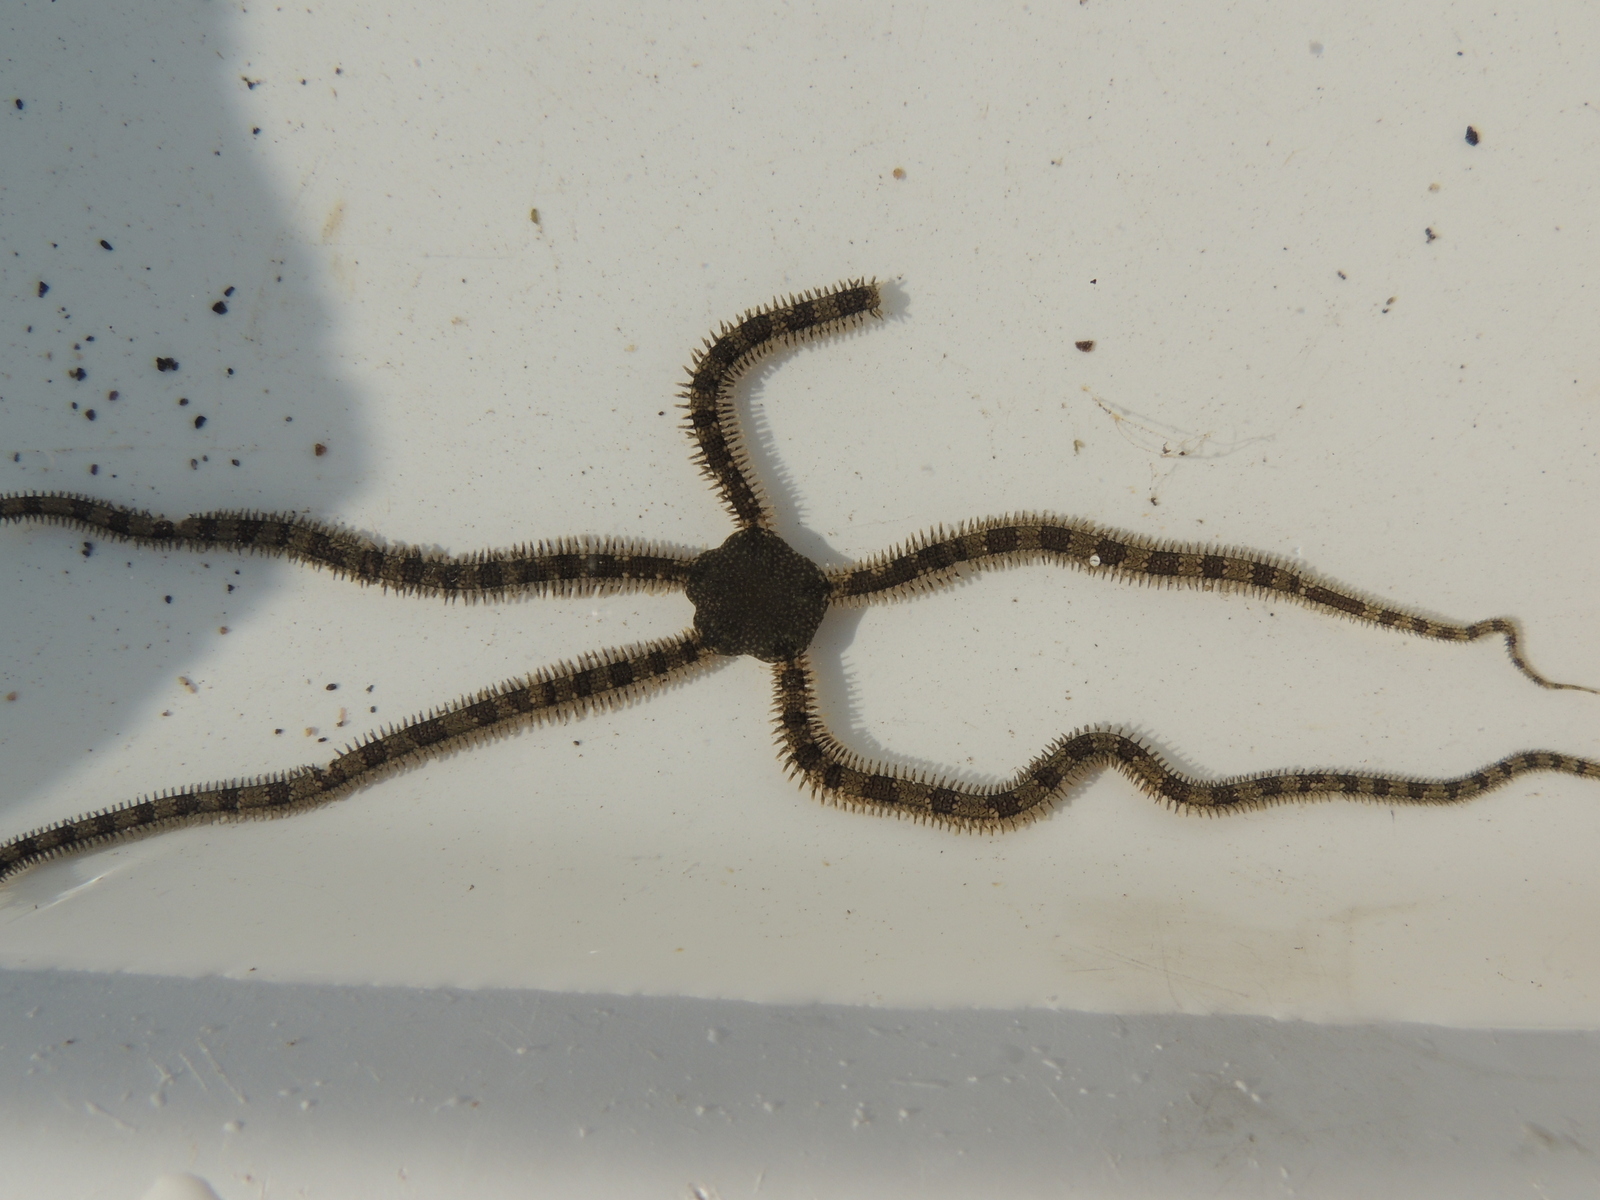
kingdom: Animalia
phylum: Echinodermata
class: Ophiuroidea
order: Amphilepidida
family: Ophionereididae
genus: Ophionereis
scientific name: Ophionereis annulata
